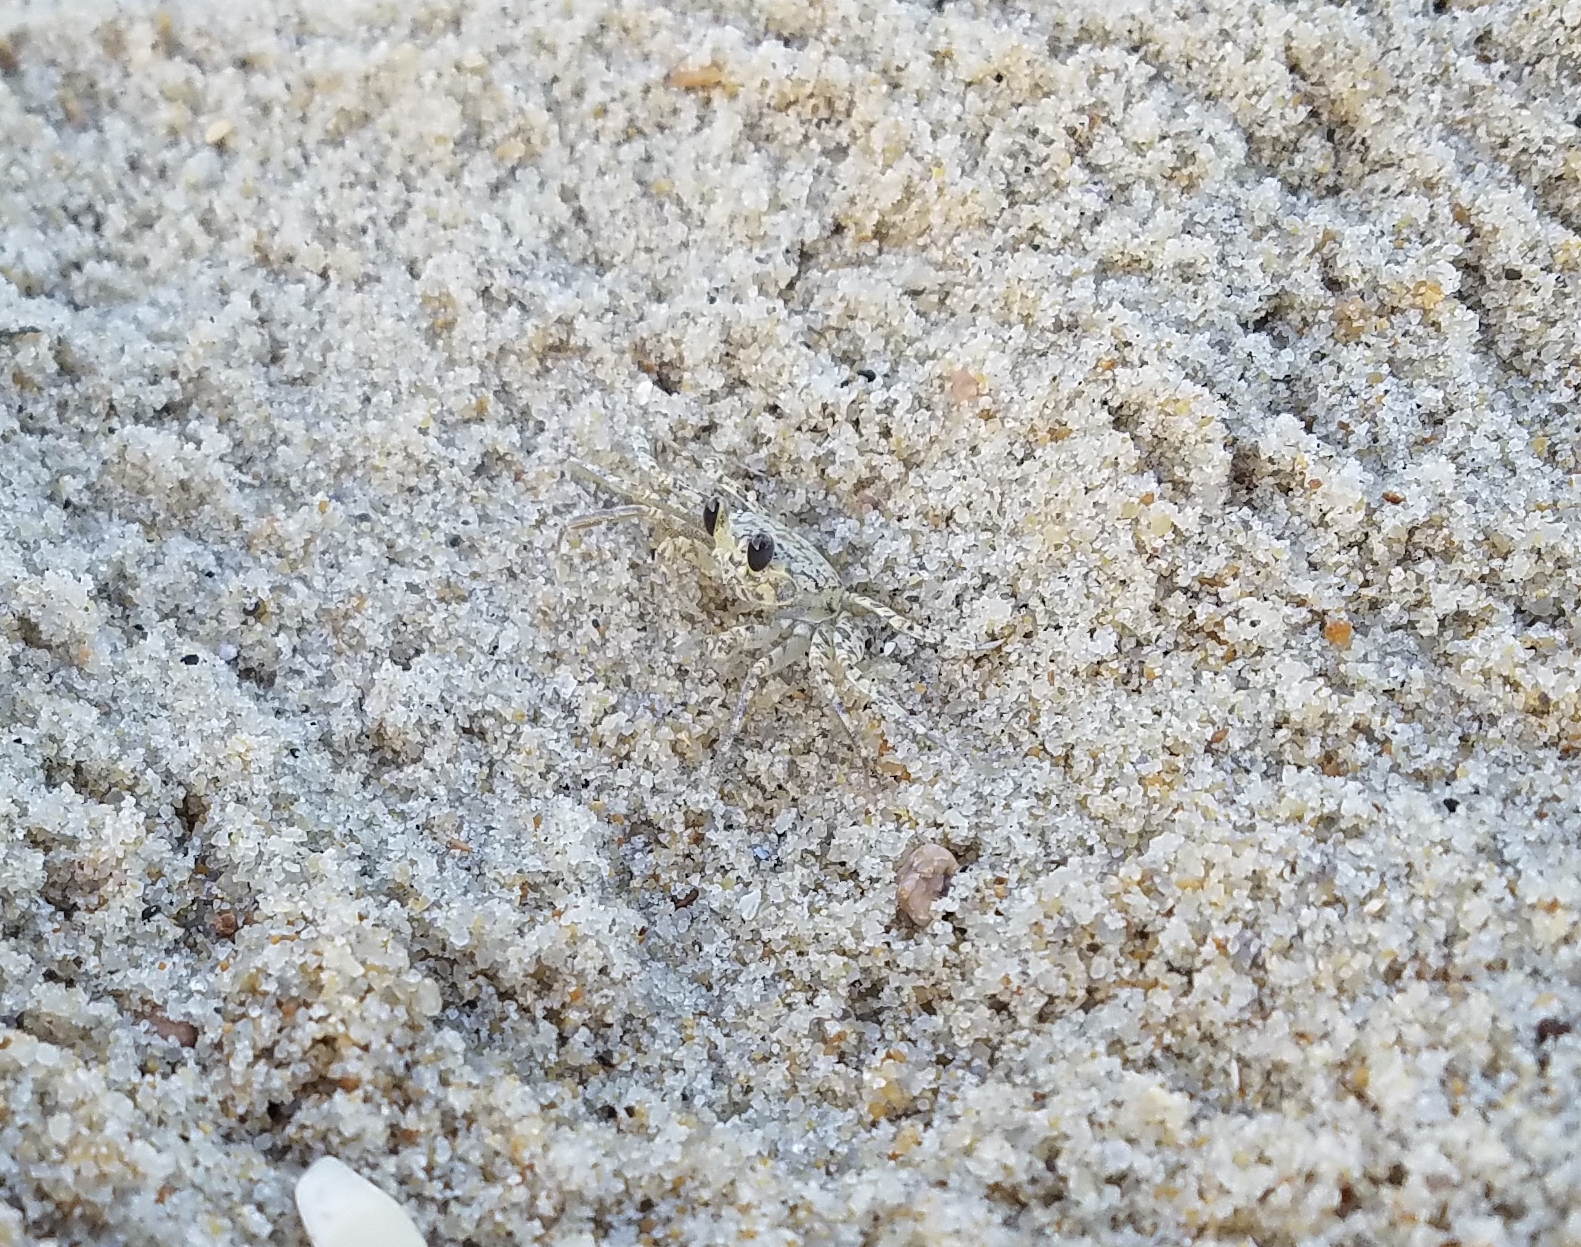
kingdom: Animalia
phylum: Arthropoda
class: Malacostraca
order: Decapoda
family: Ocypodidae
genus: Ocypode
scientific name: Ocypode quadrata
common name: Ghost crab
